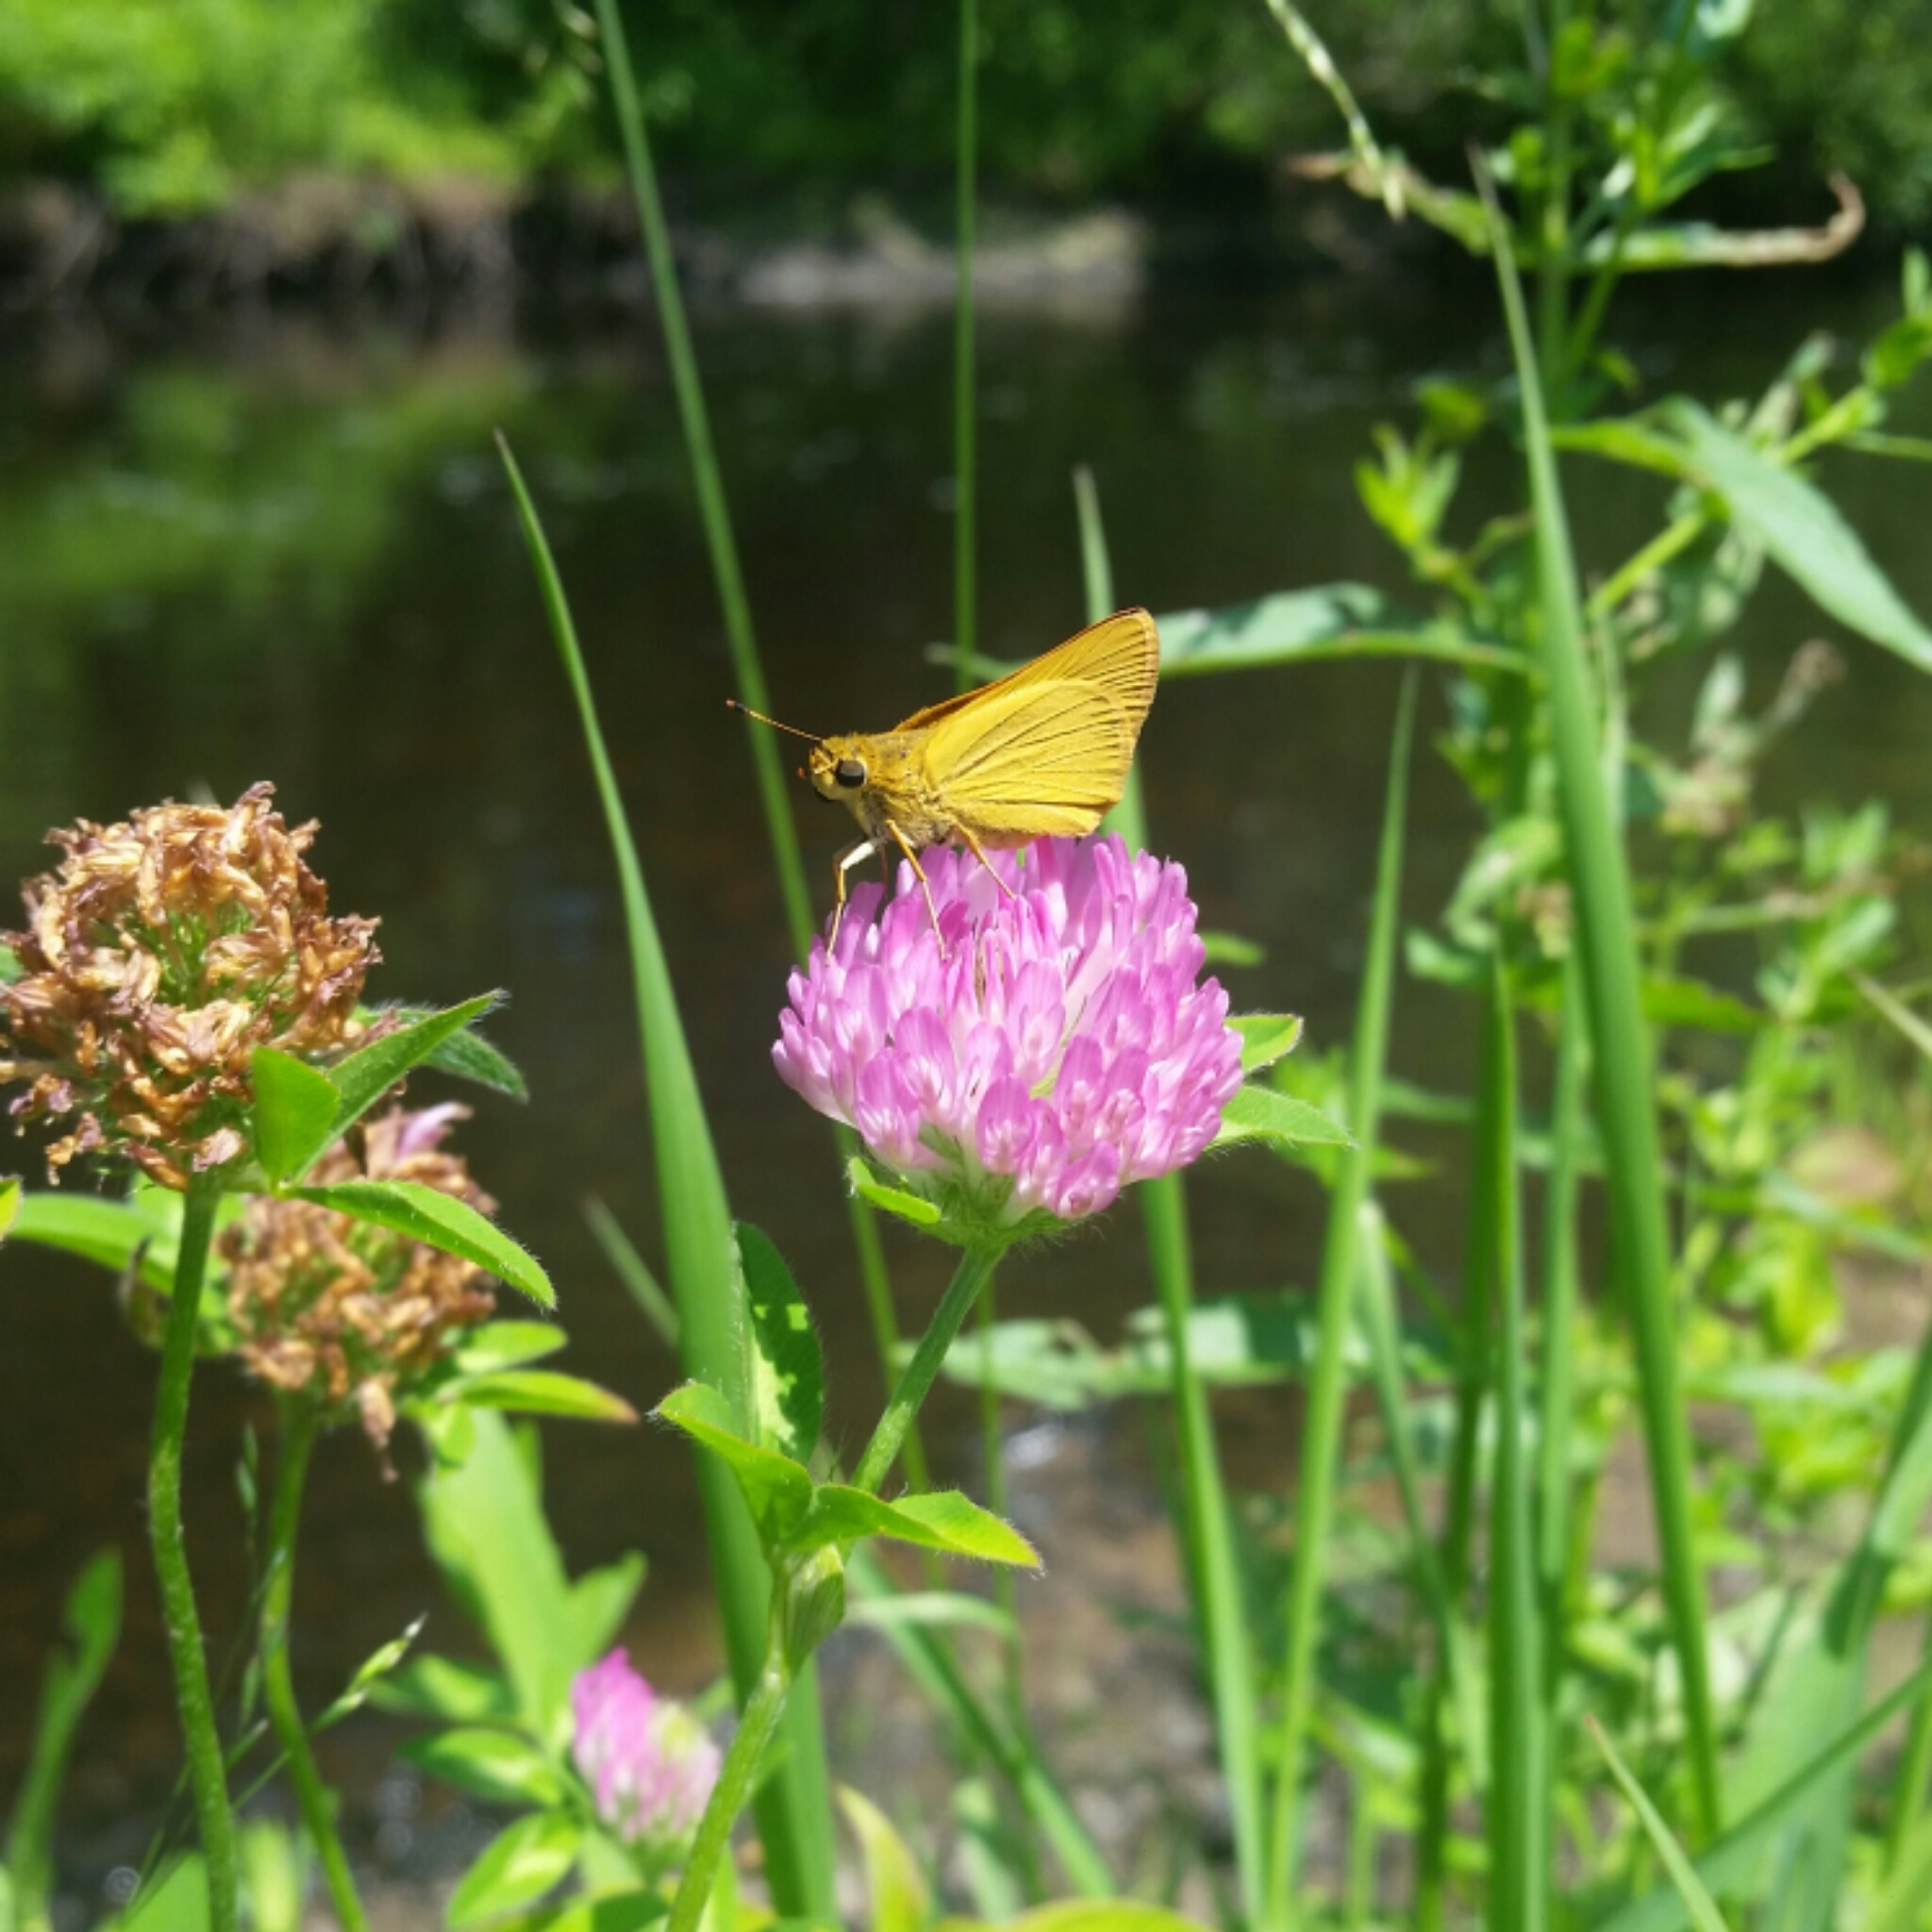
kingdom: Plantae
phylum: Tracheophyta
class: Magnoliopsida
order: Fabales
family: Fabaceae
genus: Trifolium
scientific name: Trifolium pratense
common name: Red clover
